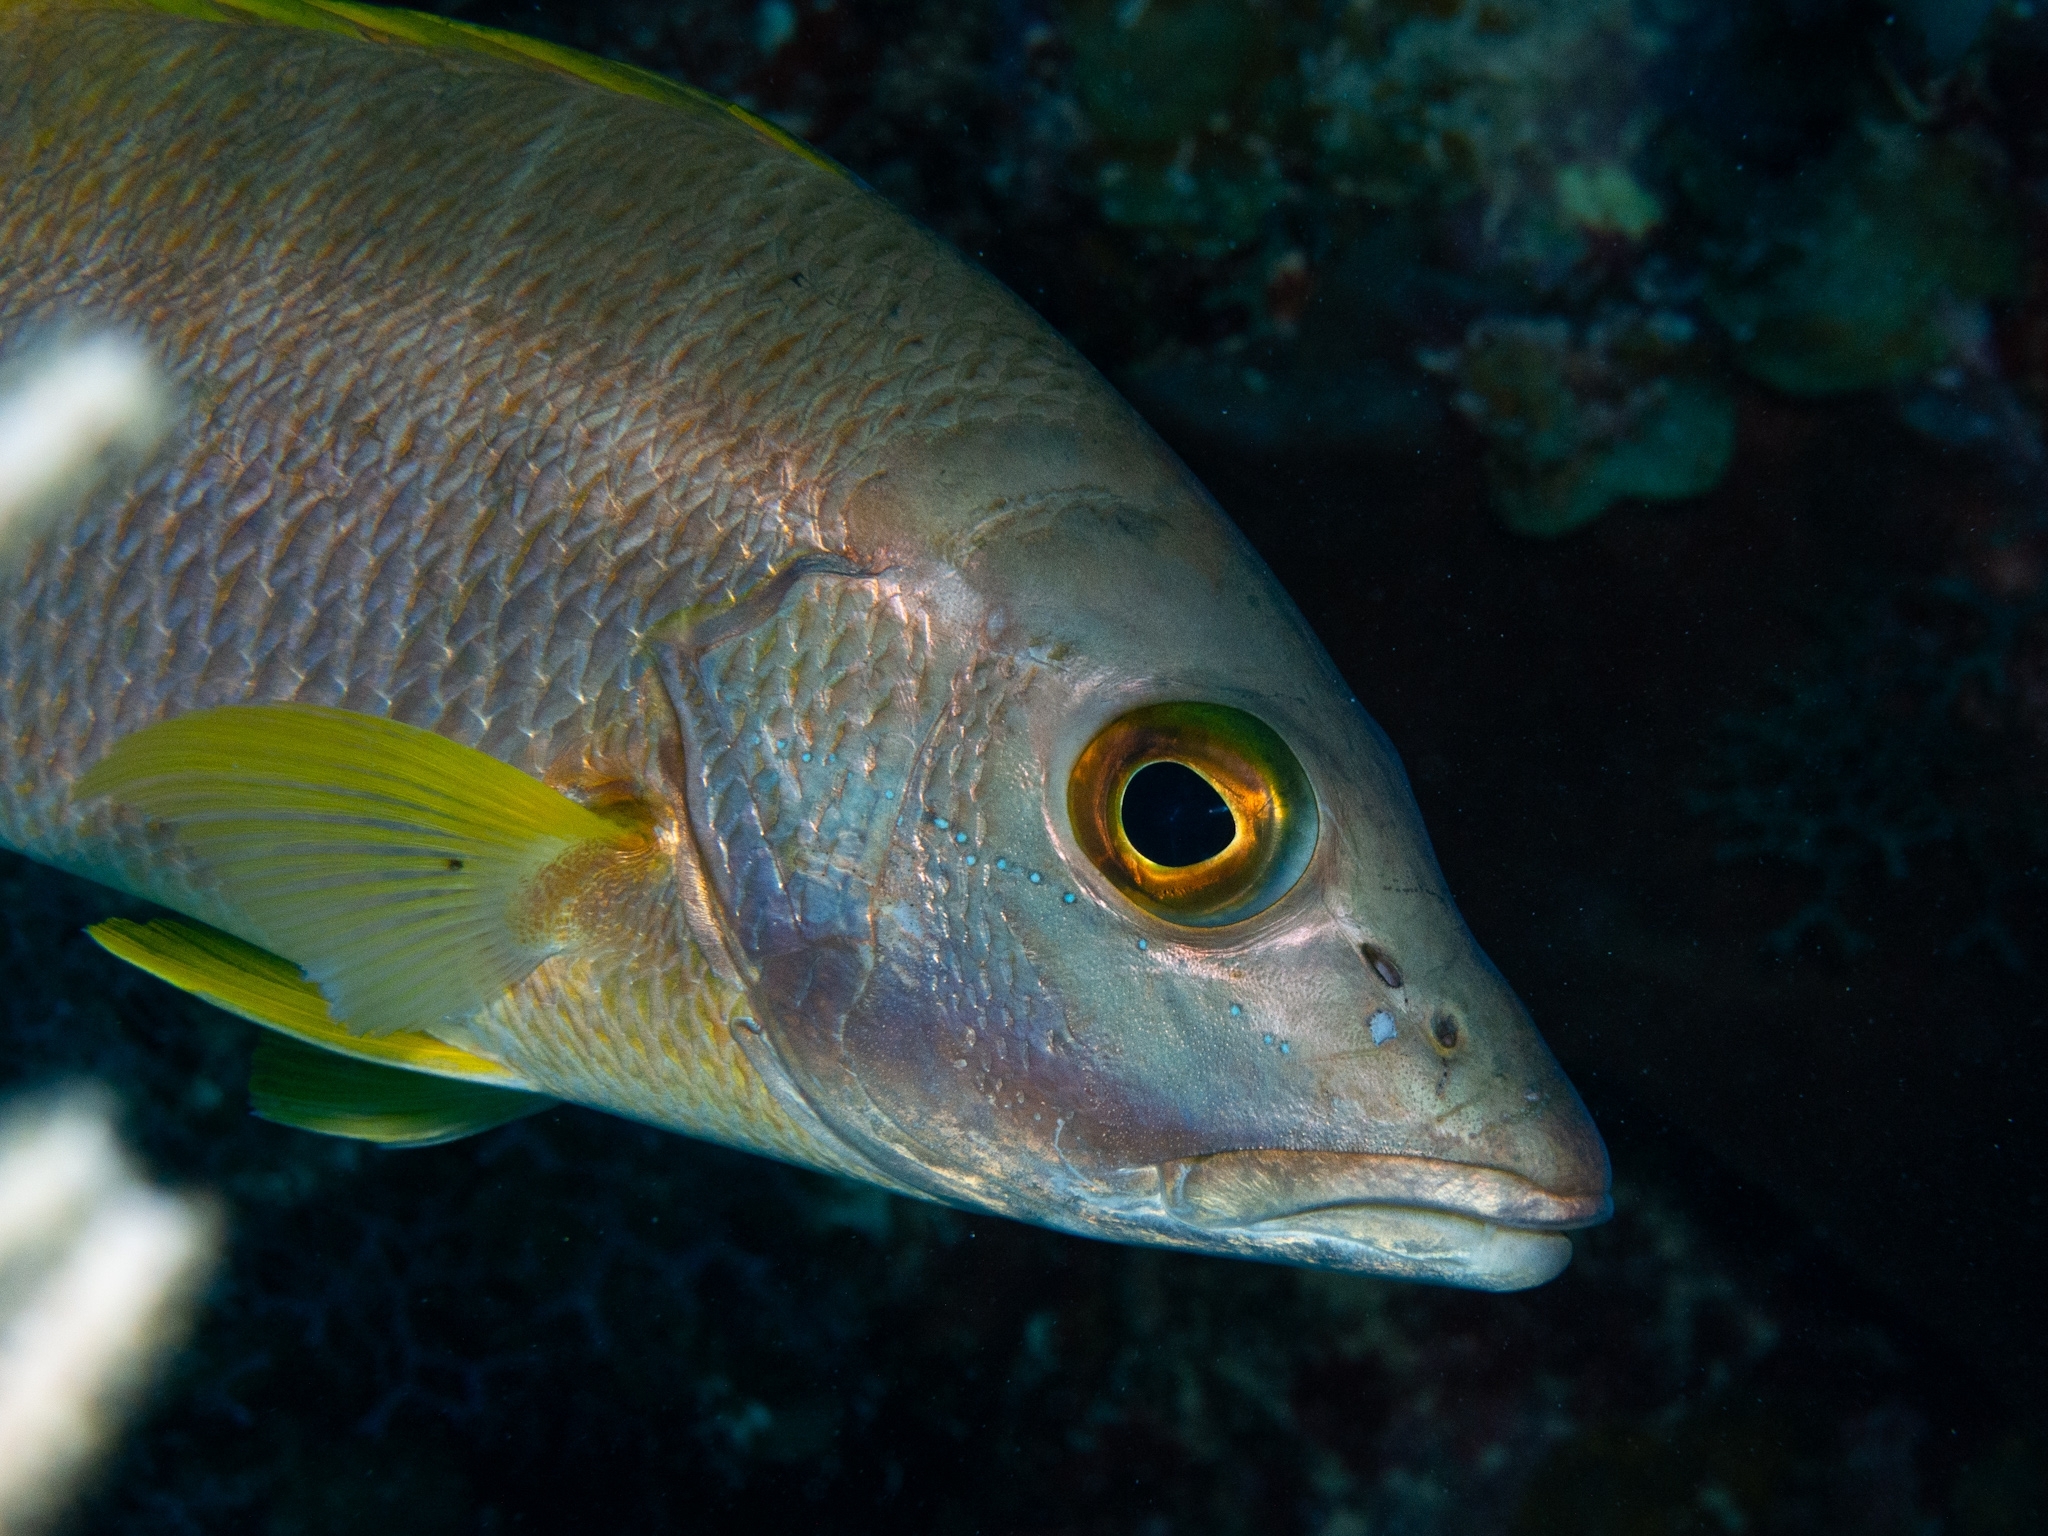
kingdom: Animalia
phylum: Chordata
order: Perciformes
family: Lutjanidae
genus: Lutjanus
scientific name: Lutjanus apodus
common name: Schoolmaster
